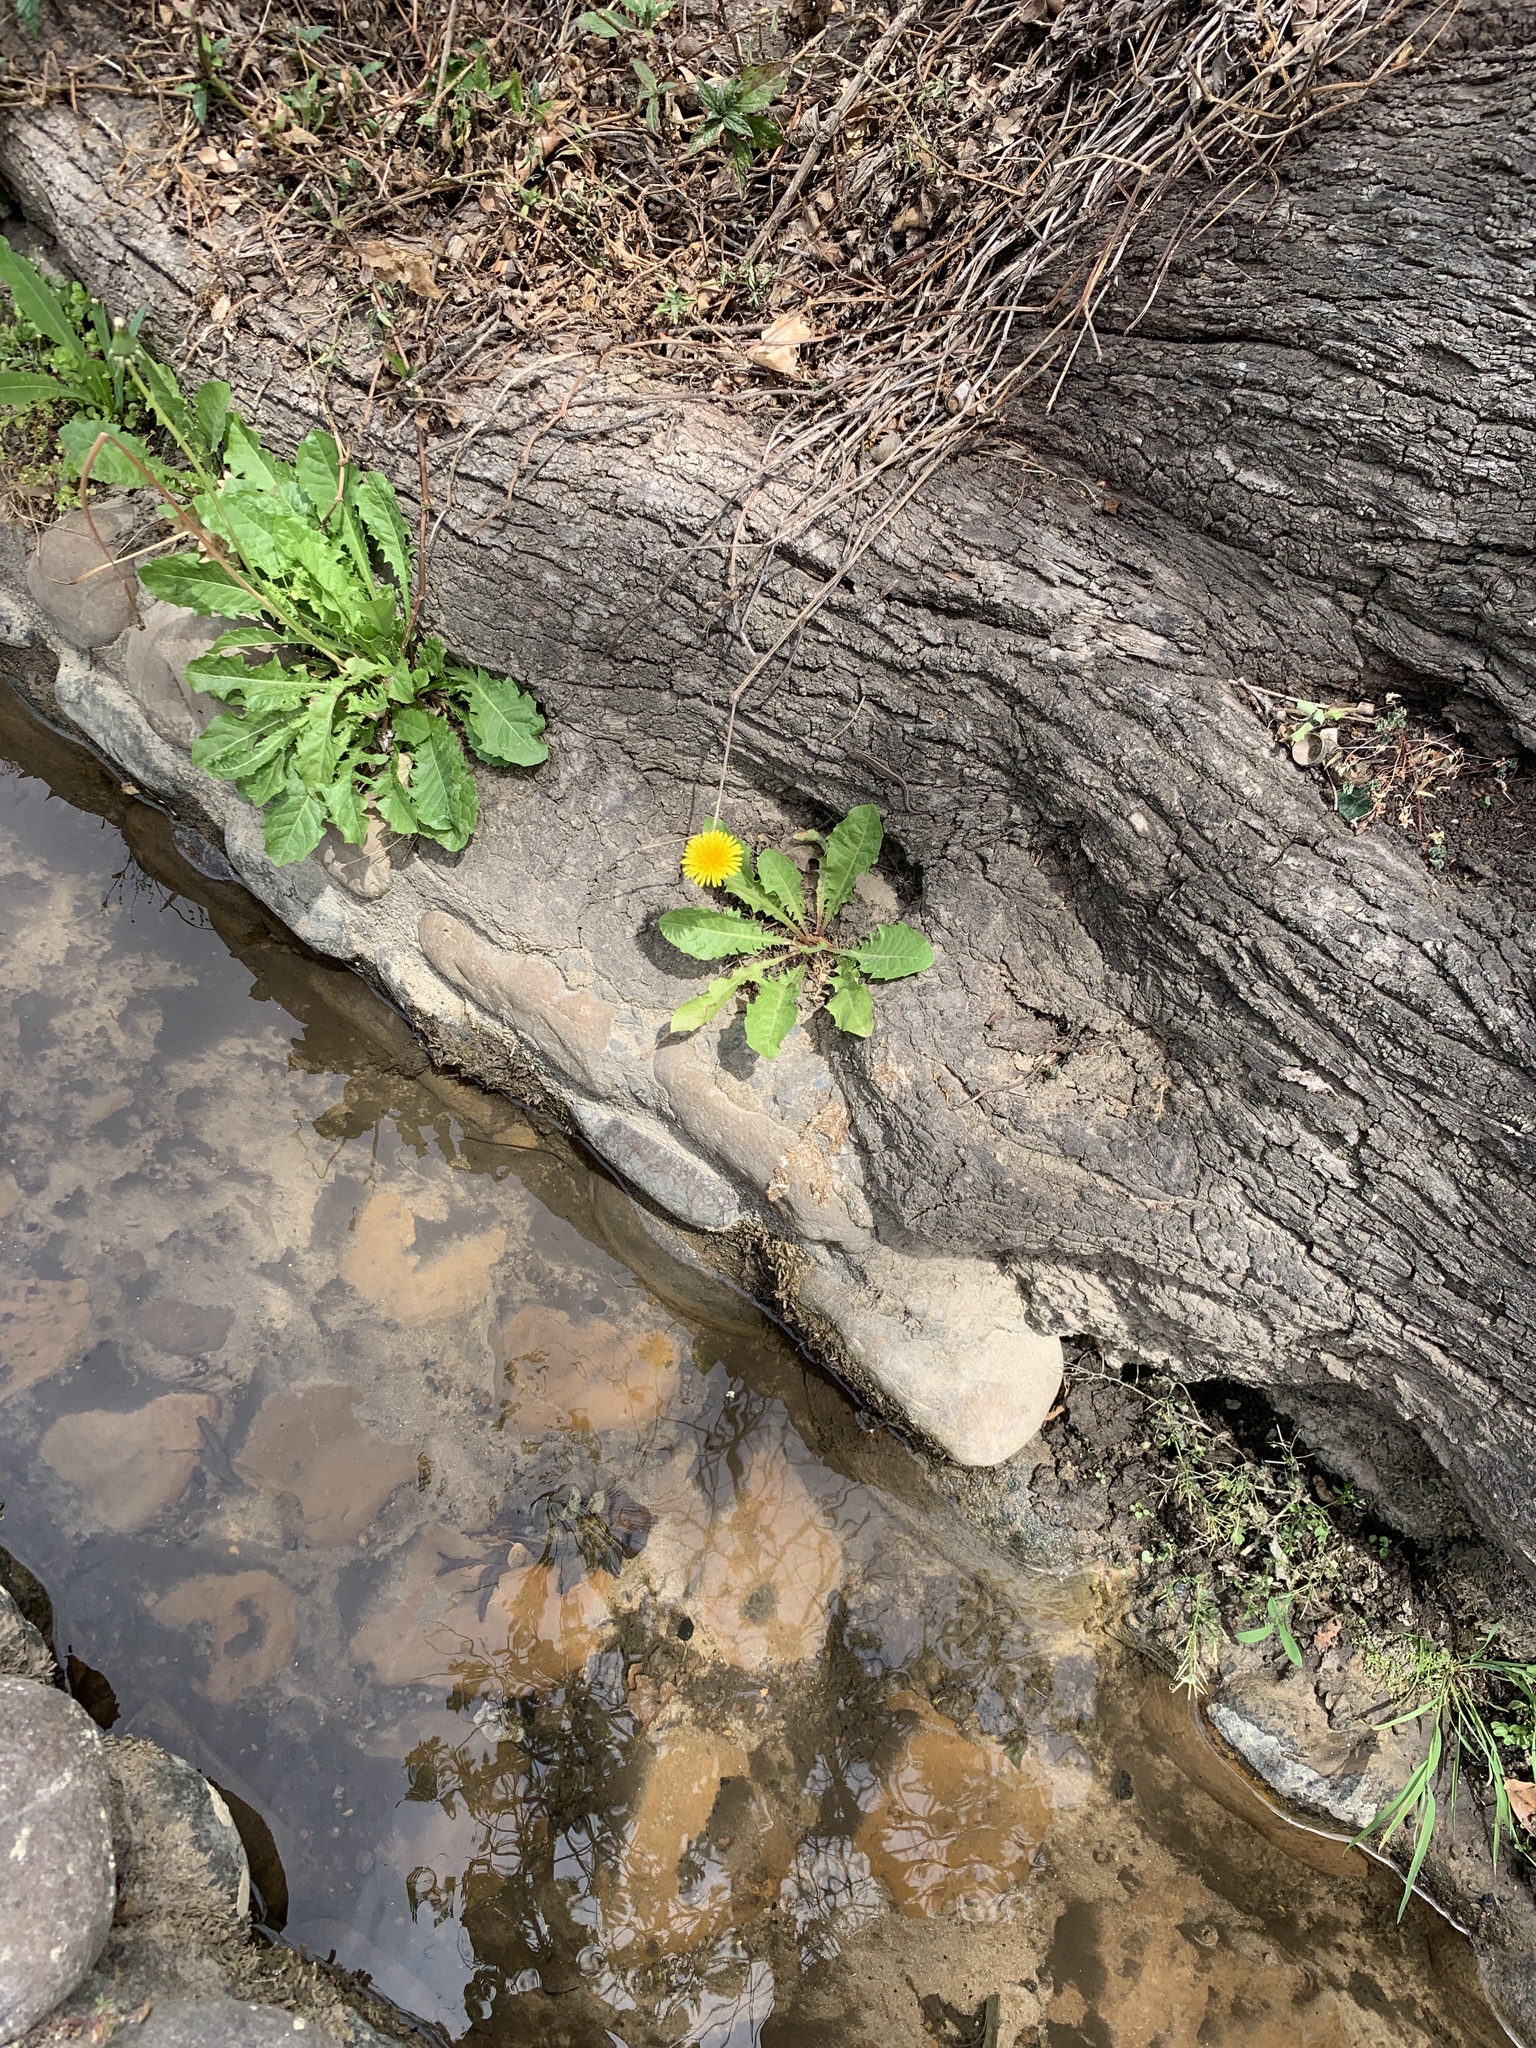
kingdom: Plantae
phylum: Tracheophyta
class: Magnoliopsida
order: Asterales
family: Asteraceae
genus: Taraxacum
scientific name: Taraxacum officinale
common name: Common dandelion
